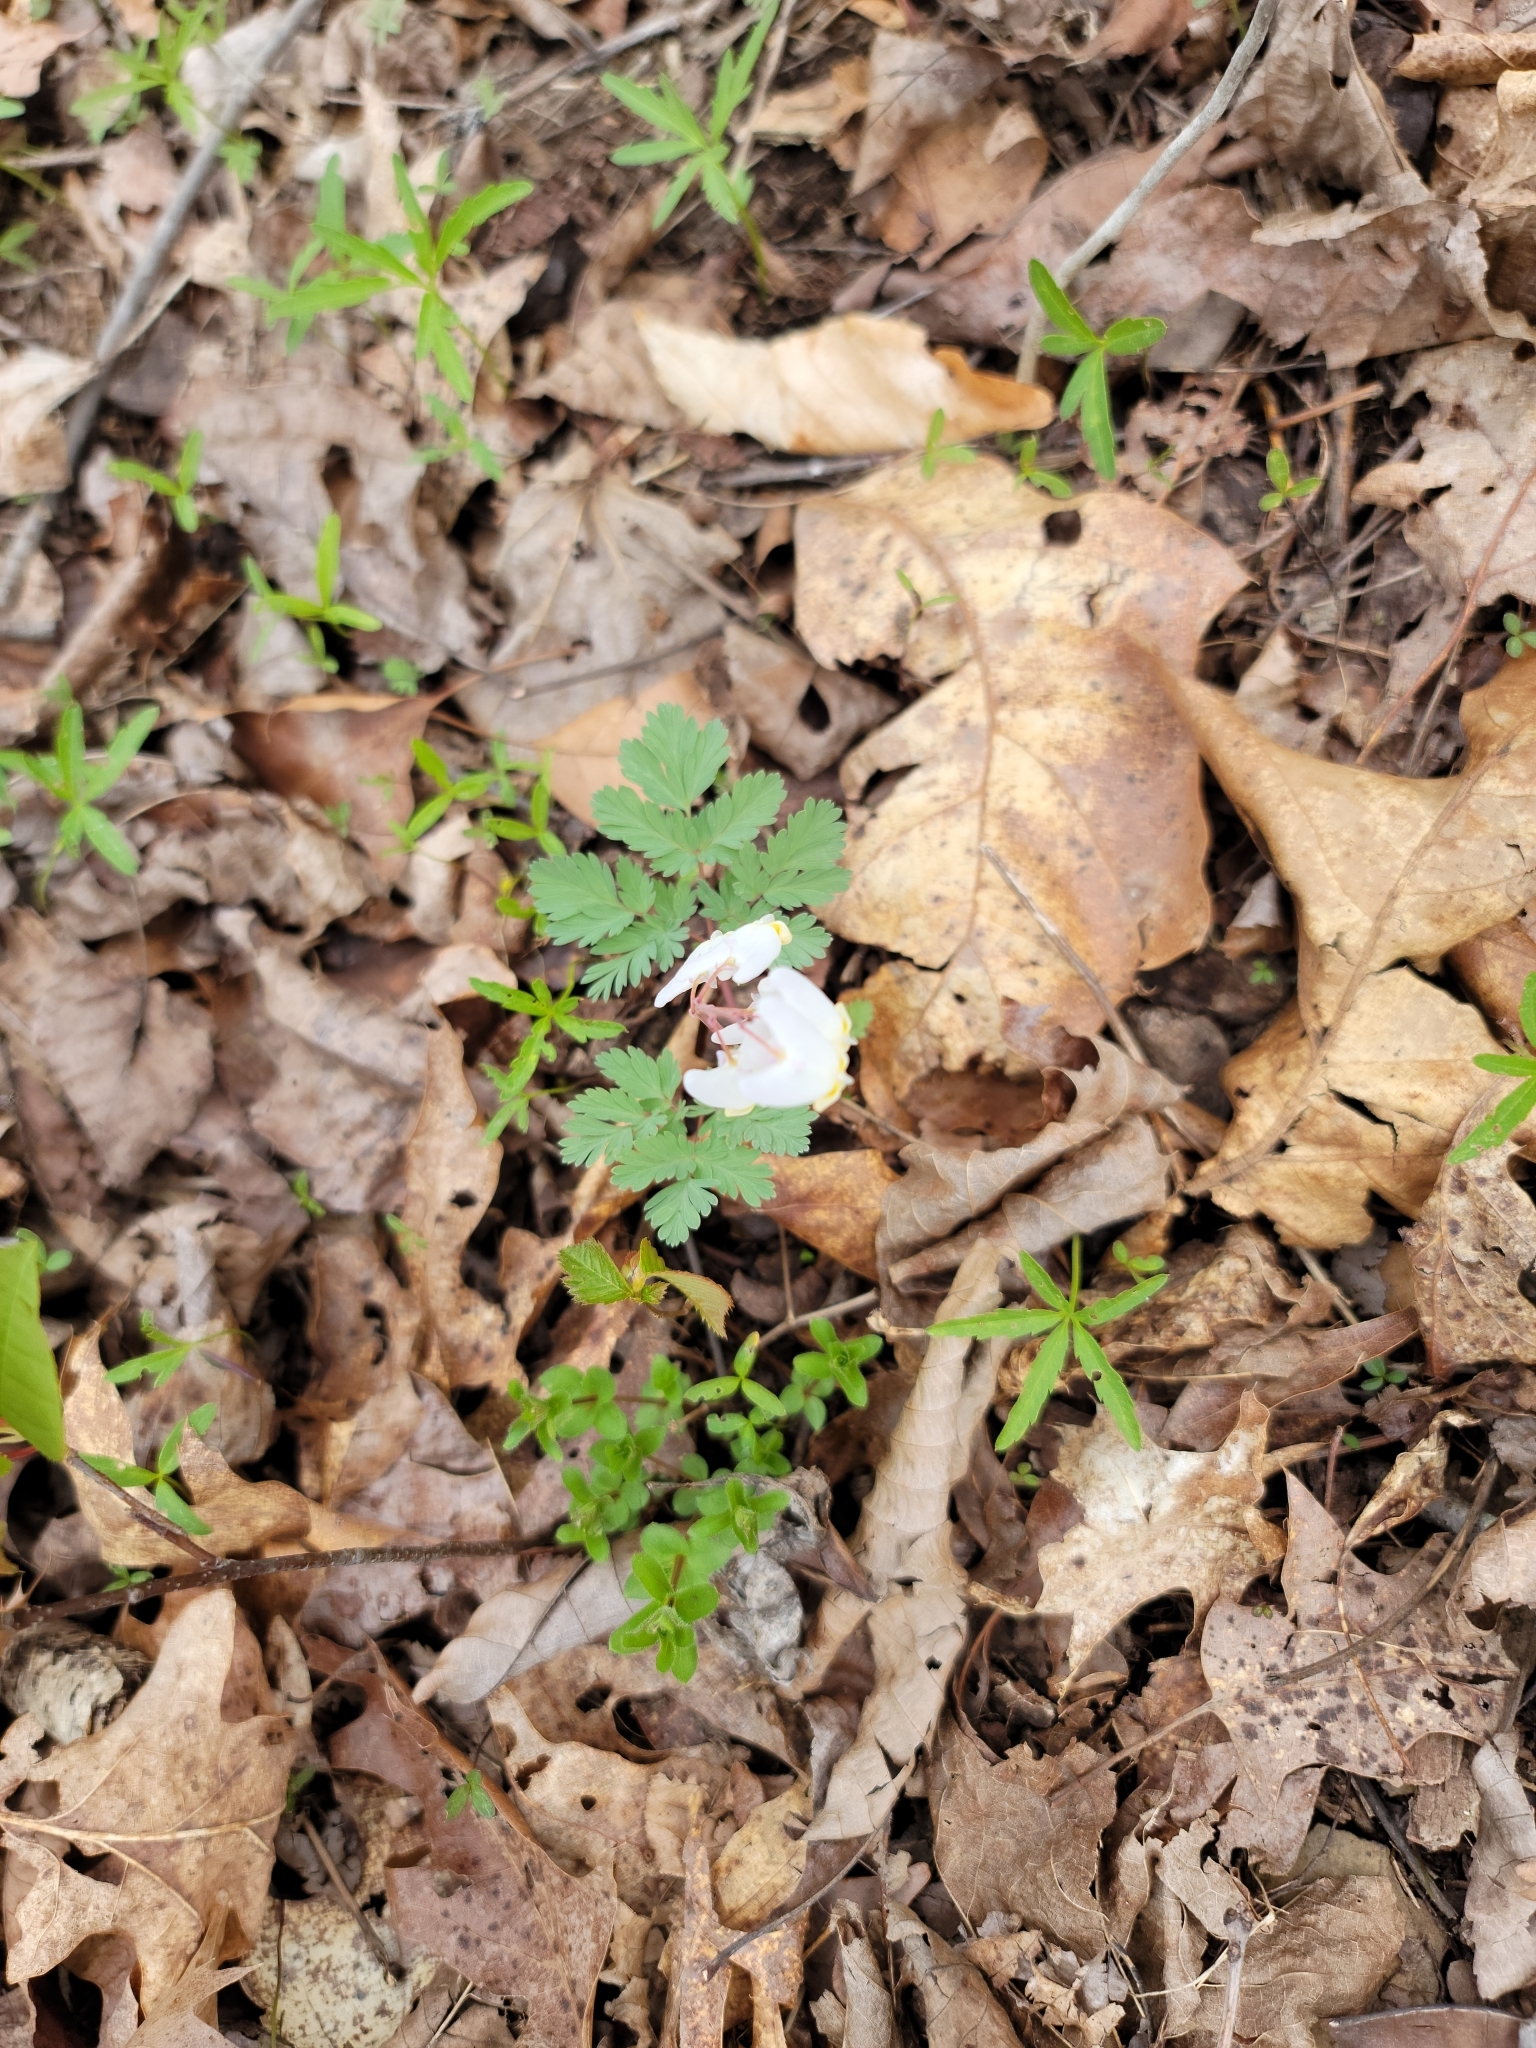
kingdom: Plantae
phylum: Tracheophyta
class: Magnoliopsida
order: Ranunculales
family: Papaveraceae
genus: Dicentra
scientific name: Dicentra cucullaria
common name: Dutchman's breeches
